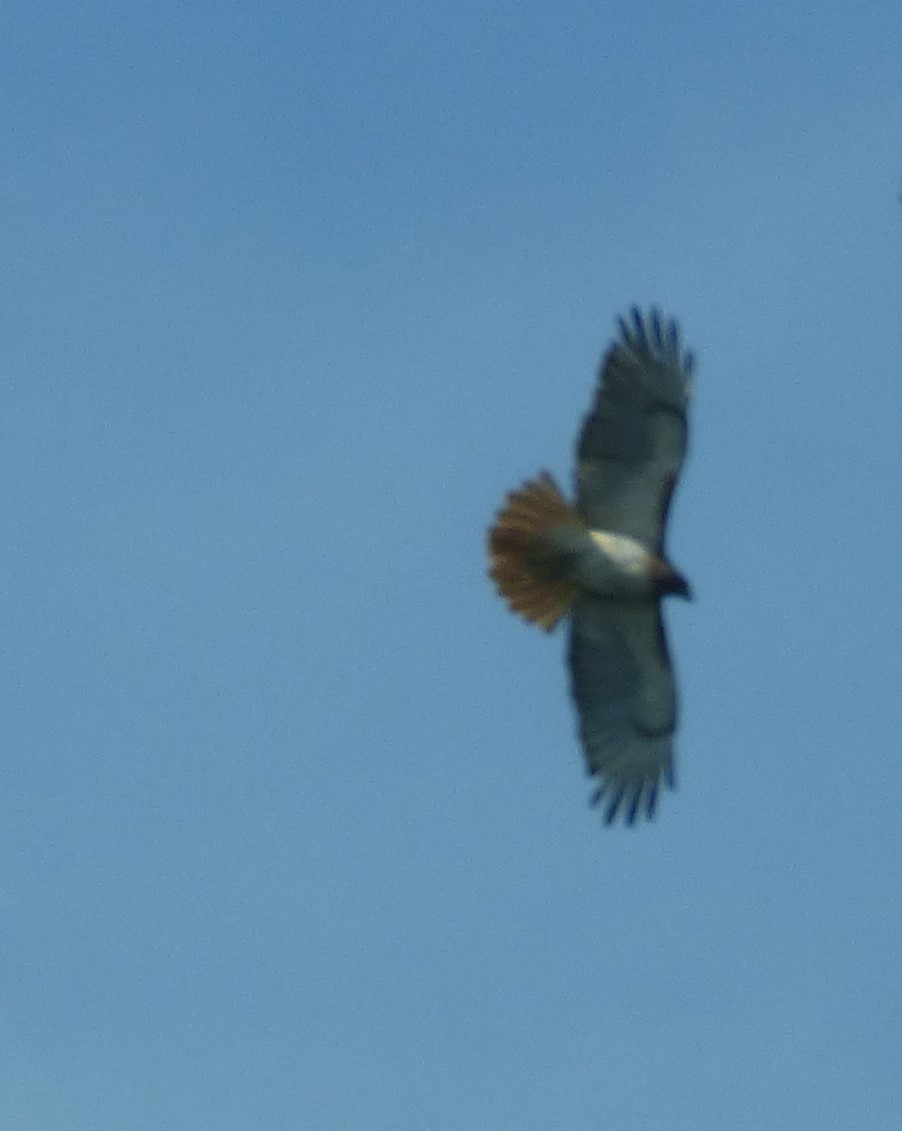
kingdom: Animalia
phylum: Chordata
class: Aves
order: Accipitriformes
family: Accipitridae
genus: Buteo
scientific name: Buteo jamaicensis
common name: Red-tailed hawk
